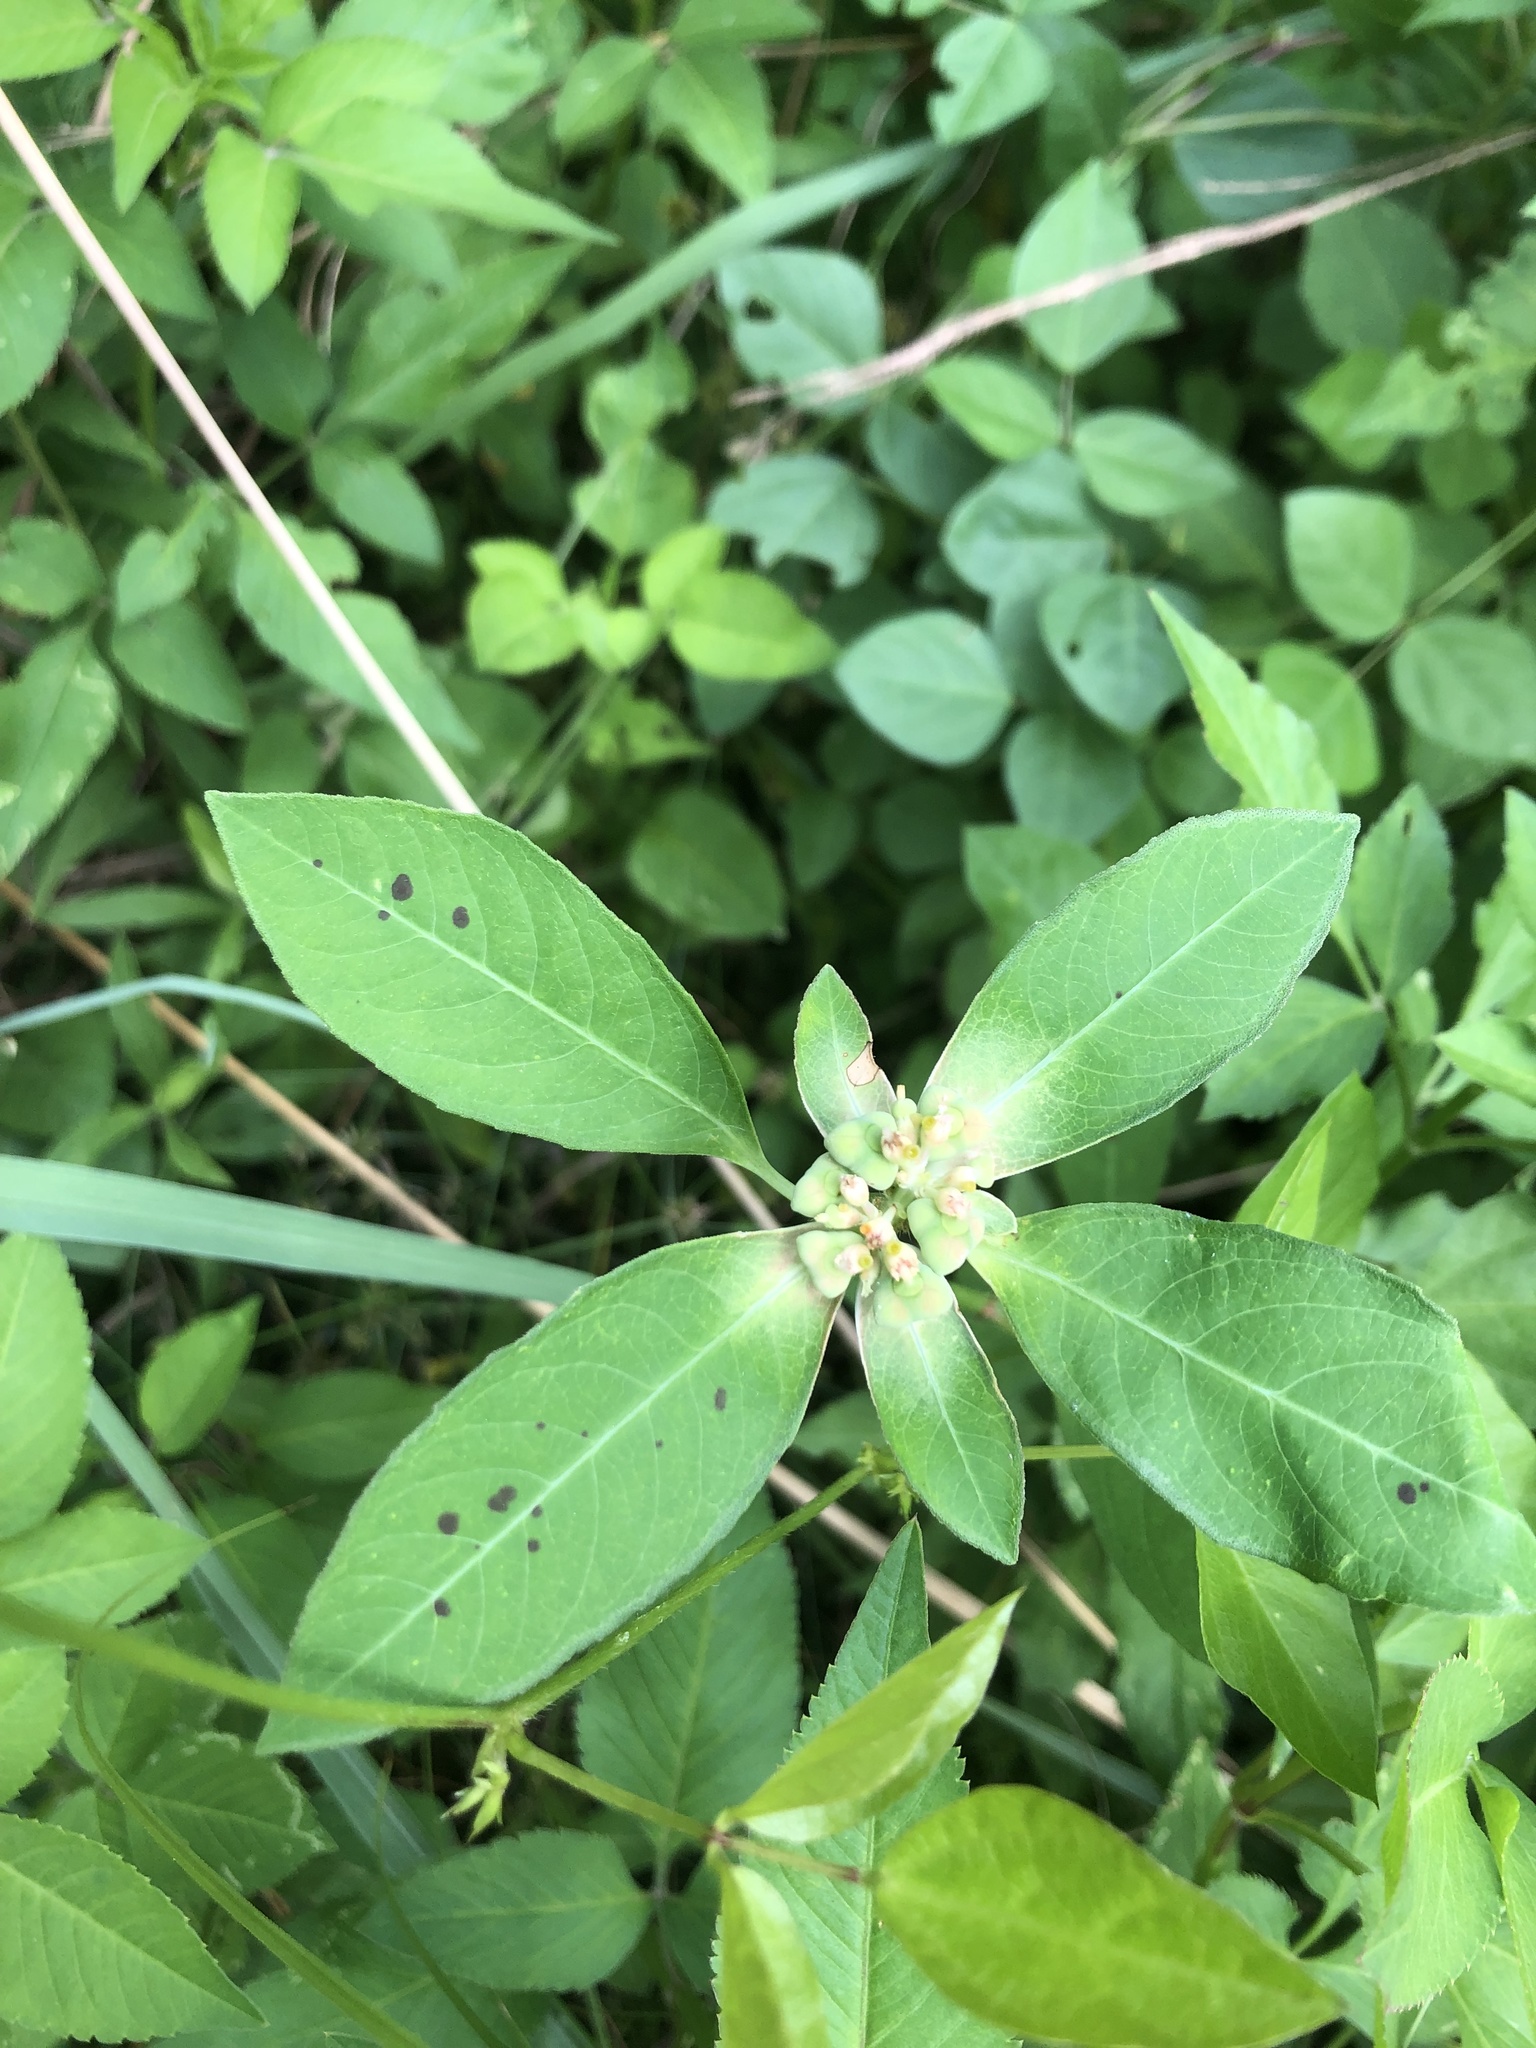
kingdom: Plantae
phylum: Tracheophyta
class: Magnoliopsida
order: Malpighiales
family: Euphorbiaceae
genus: Euphorbia
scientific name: Euphorbia heterophylla
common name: Mexican fireplant
